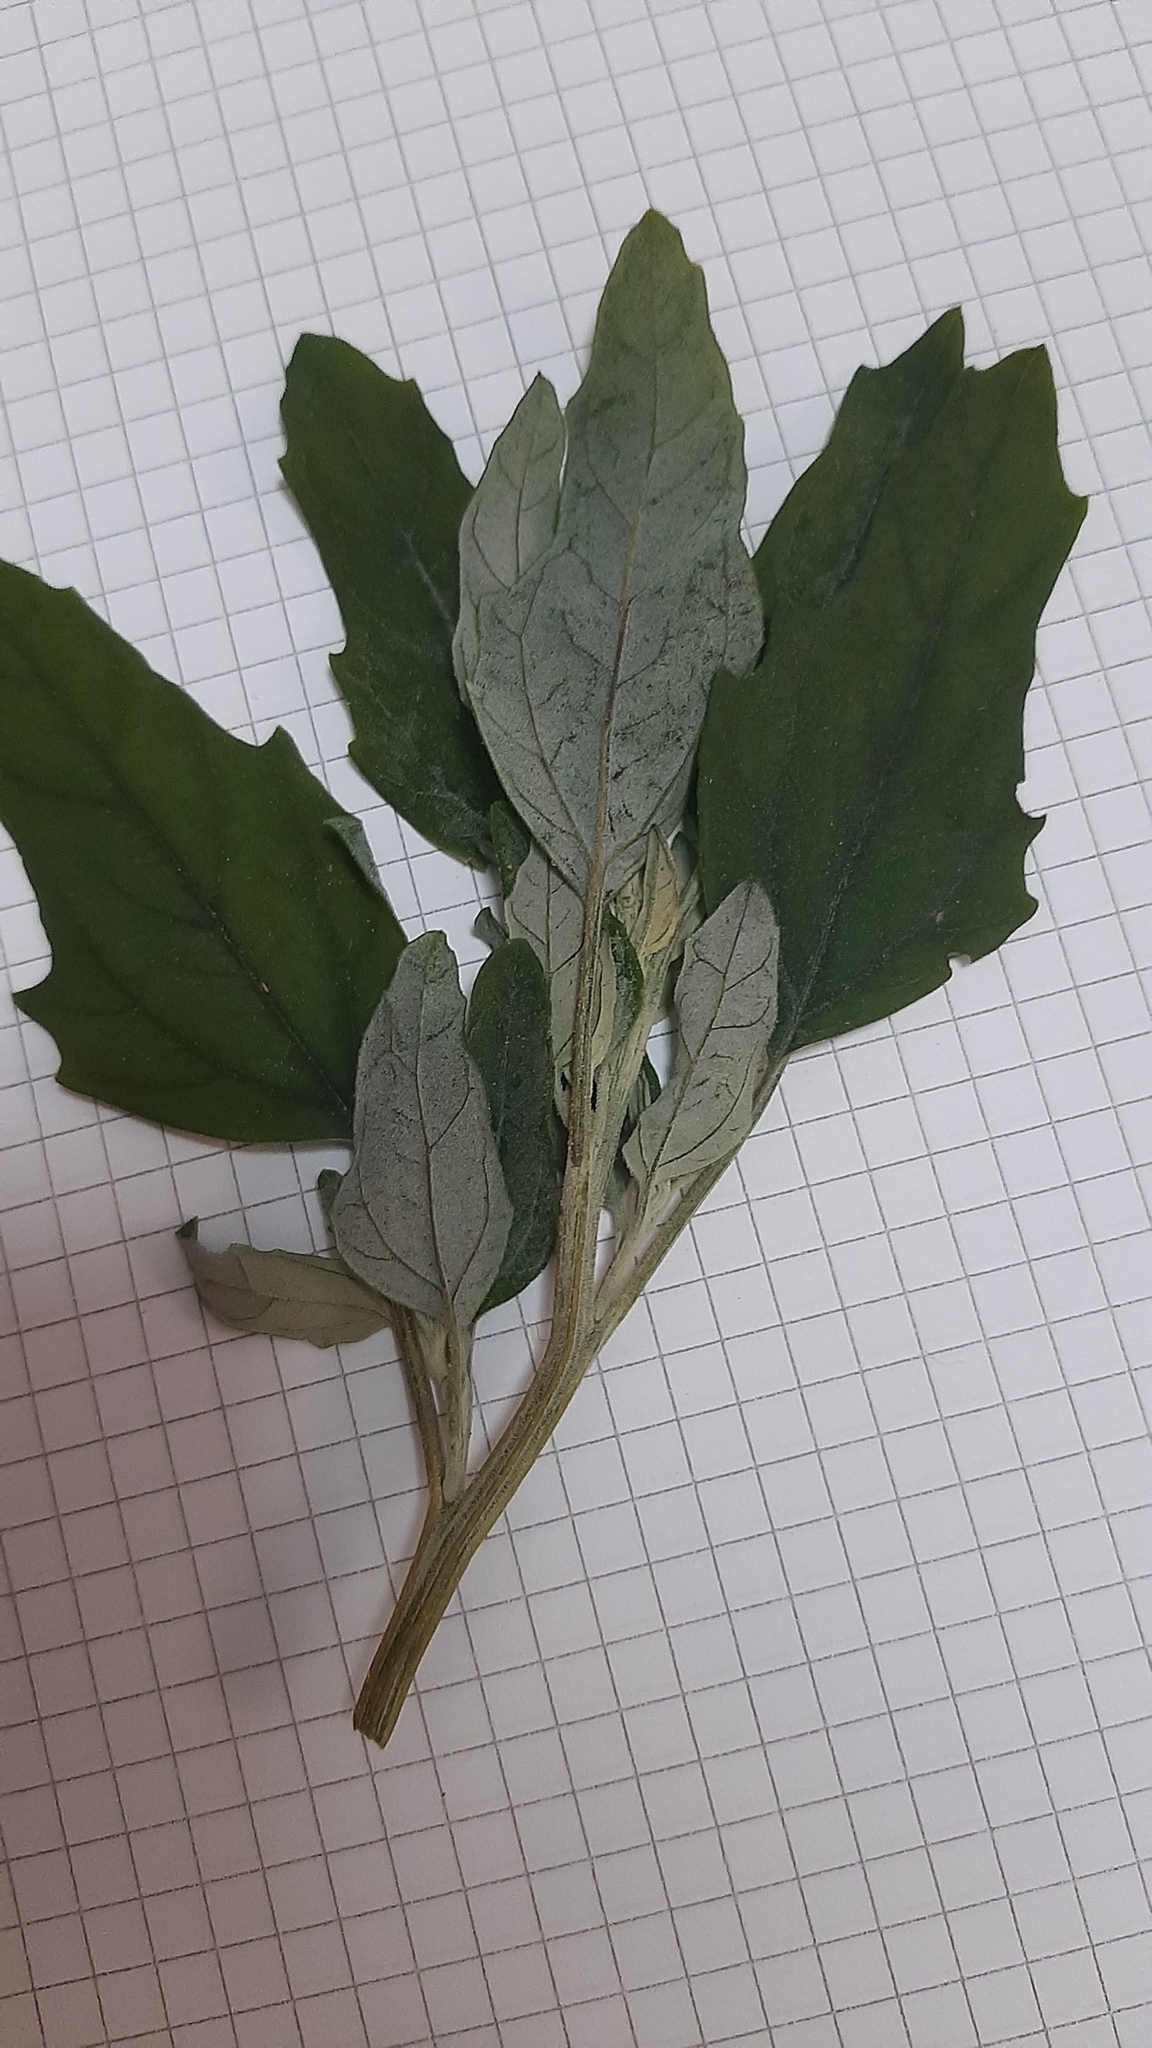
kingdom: Plantae
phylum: Tracheophyta
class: Magnoliopsida
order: Caryophyllales
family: Amaranthaceae
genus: Chenopodium
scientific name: Chenopodium album
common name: Fat-hen
